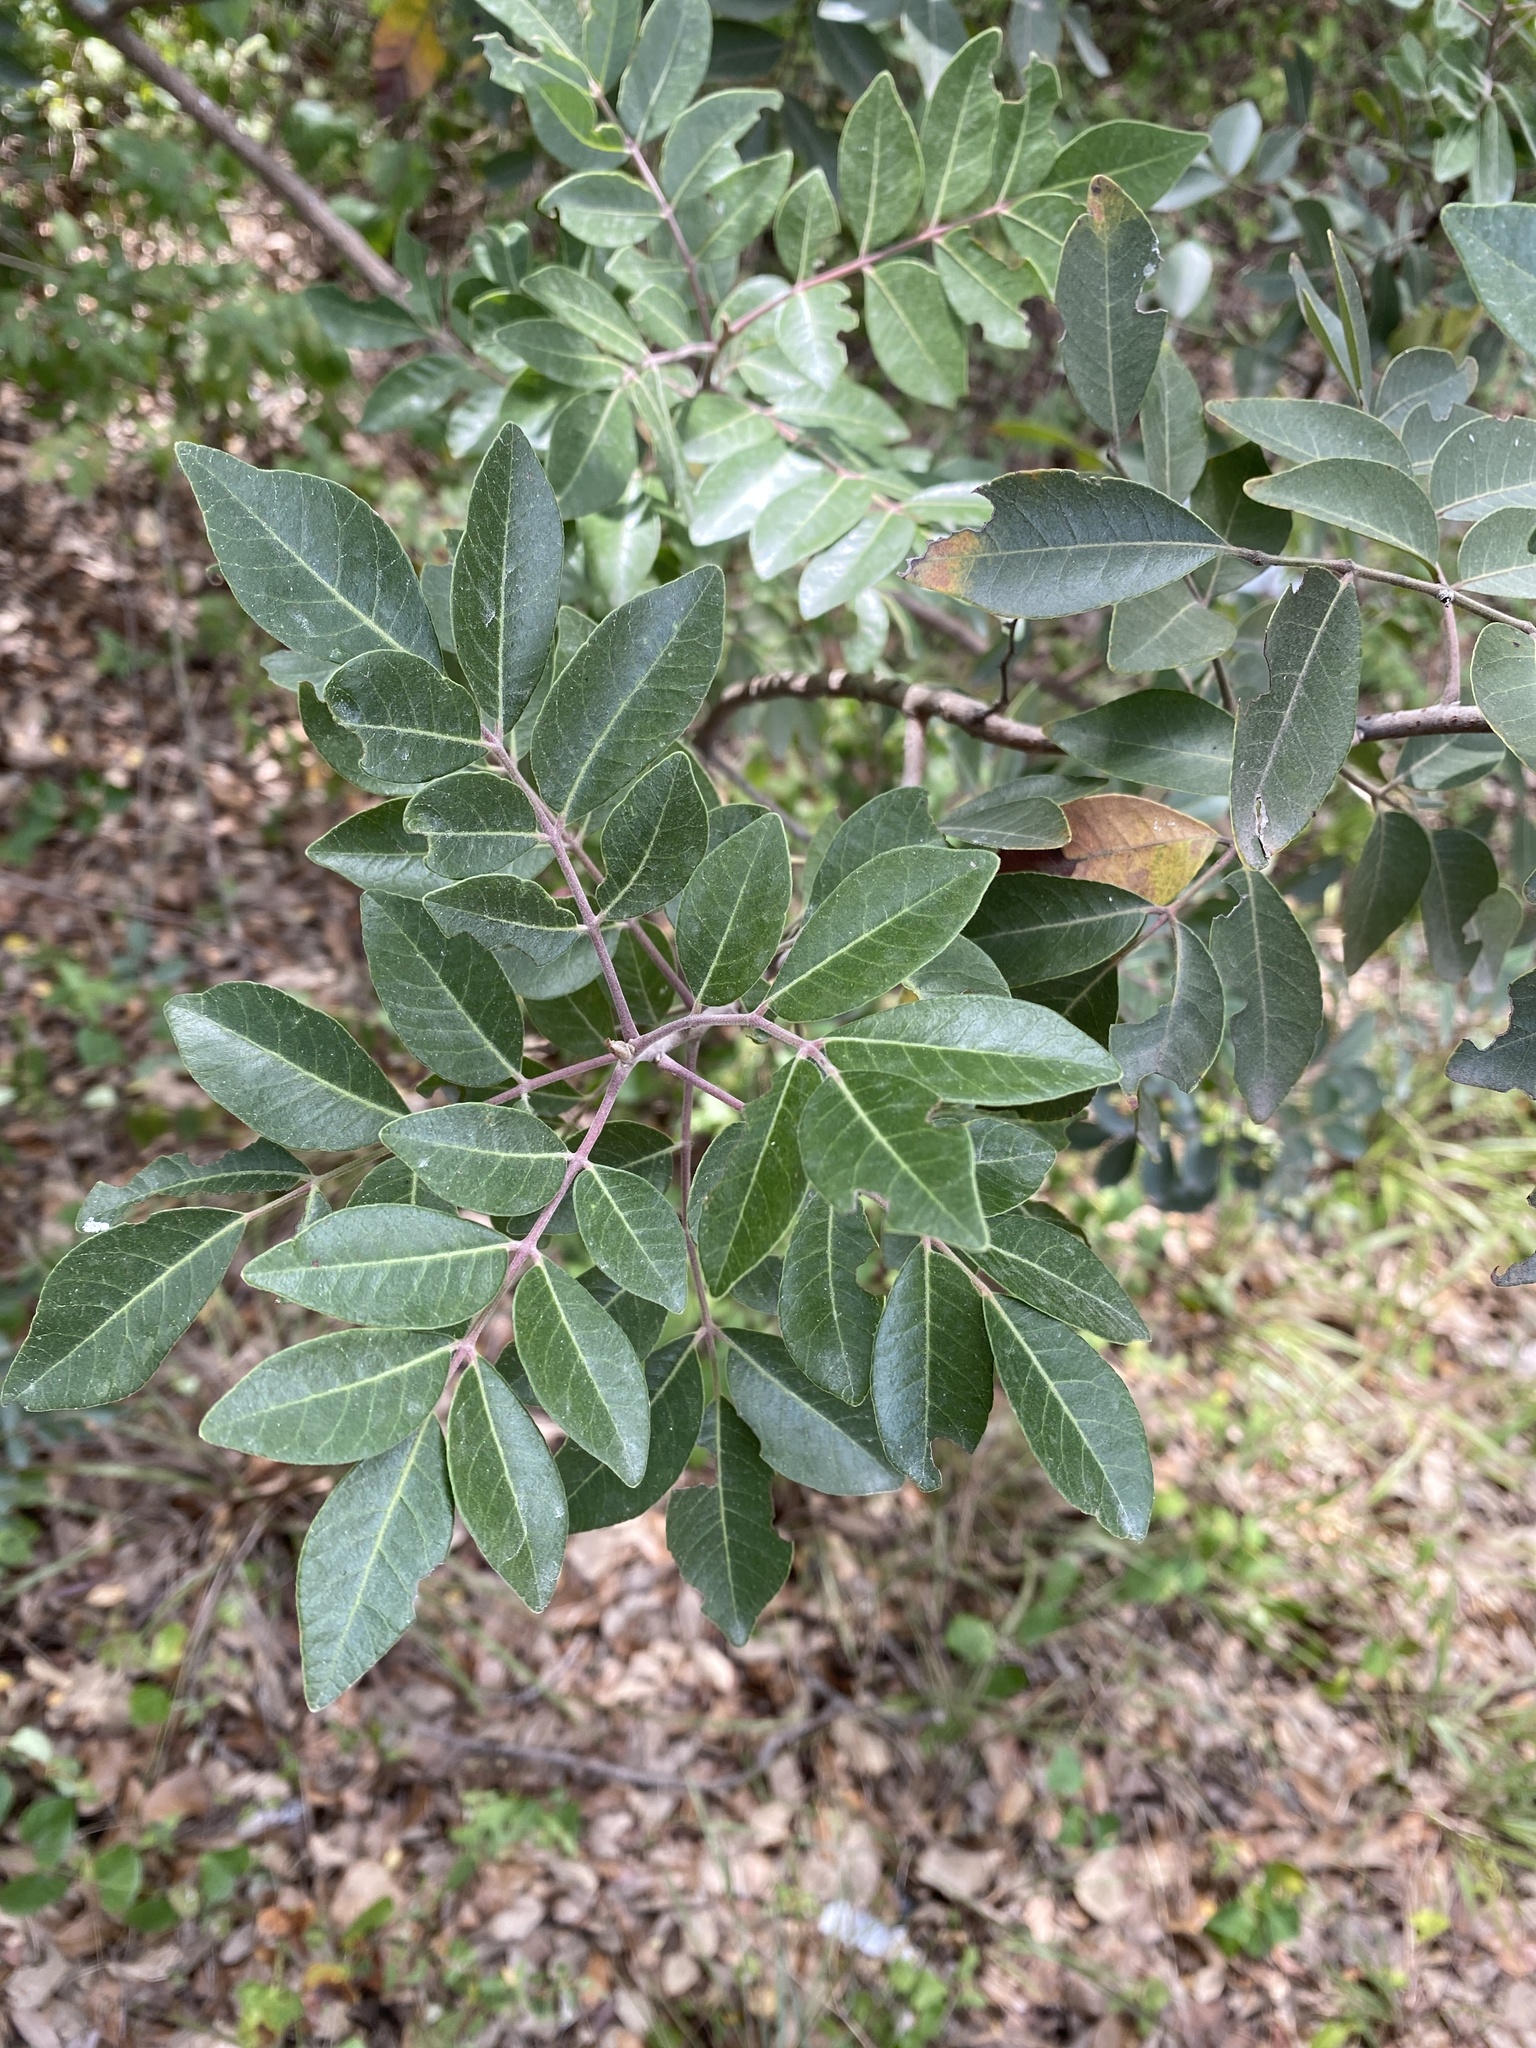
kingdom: Plantae
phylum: Tracheophyta
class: Magnoliopsida
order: Sapindales
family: Anacardiaceae
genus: Rhus
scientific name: Rhus virens
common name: Evergreen sumac
